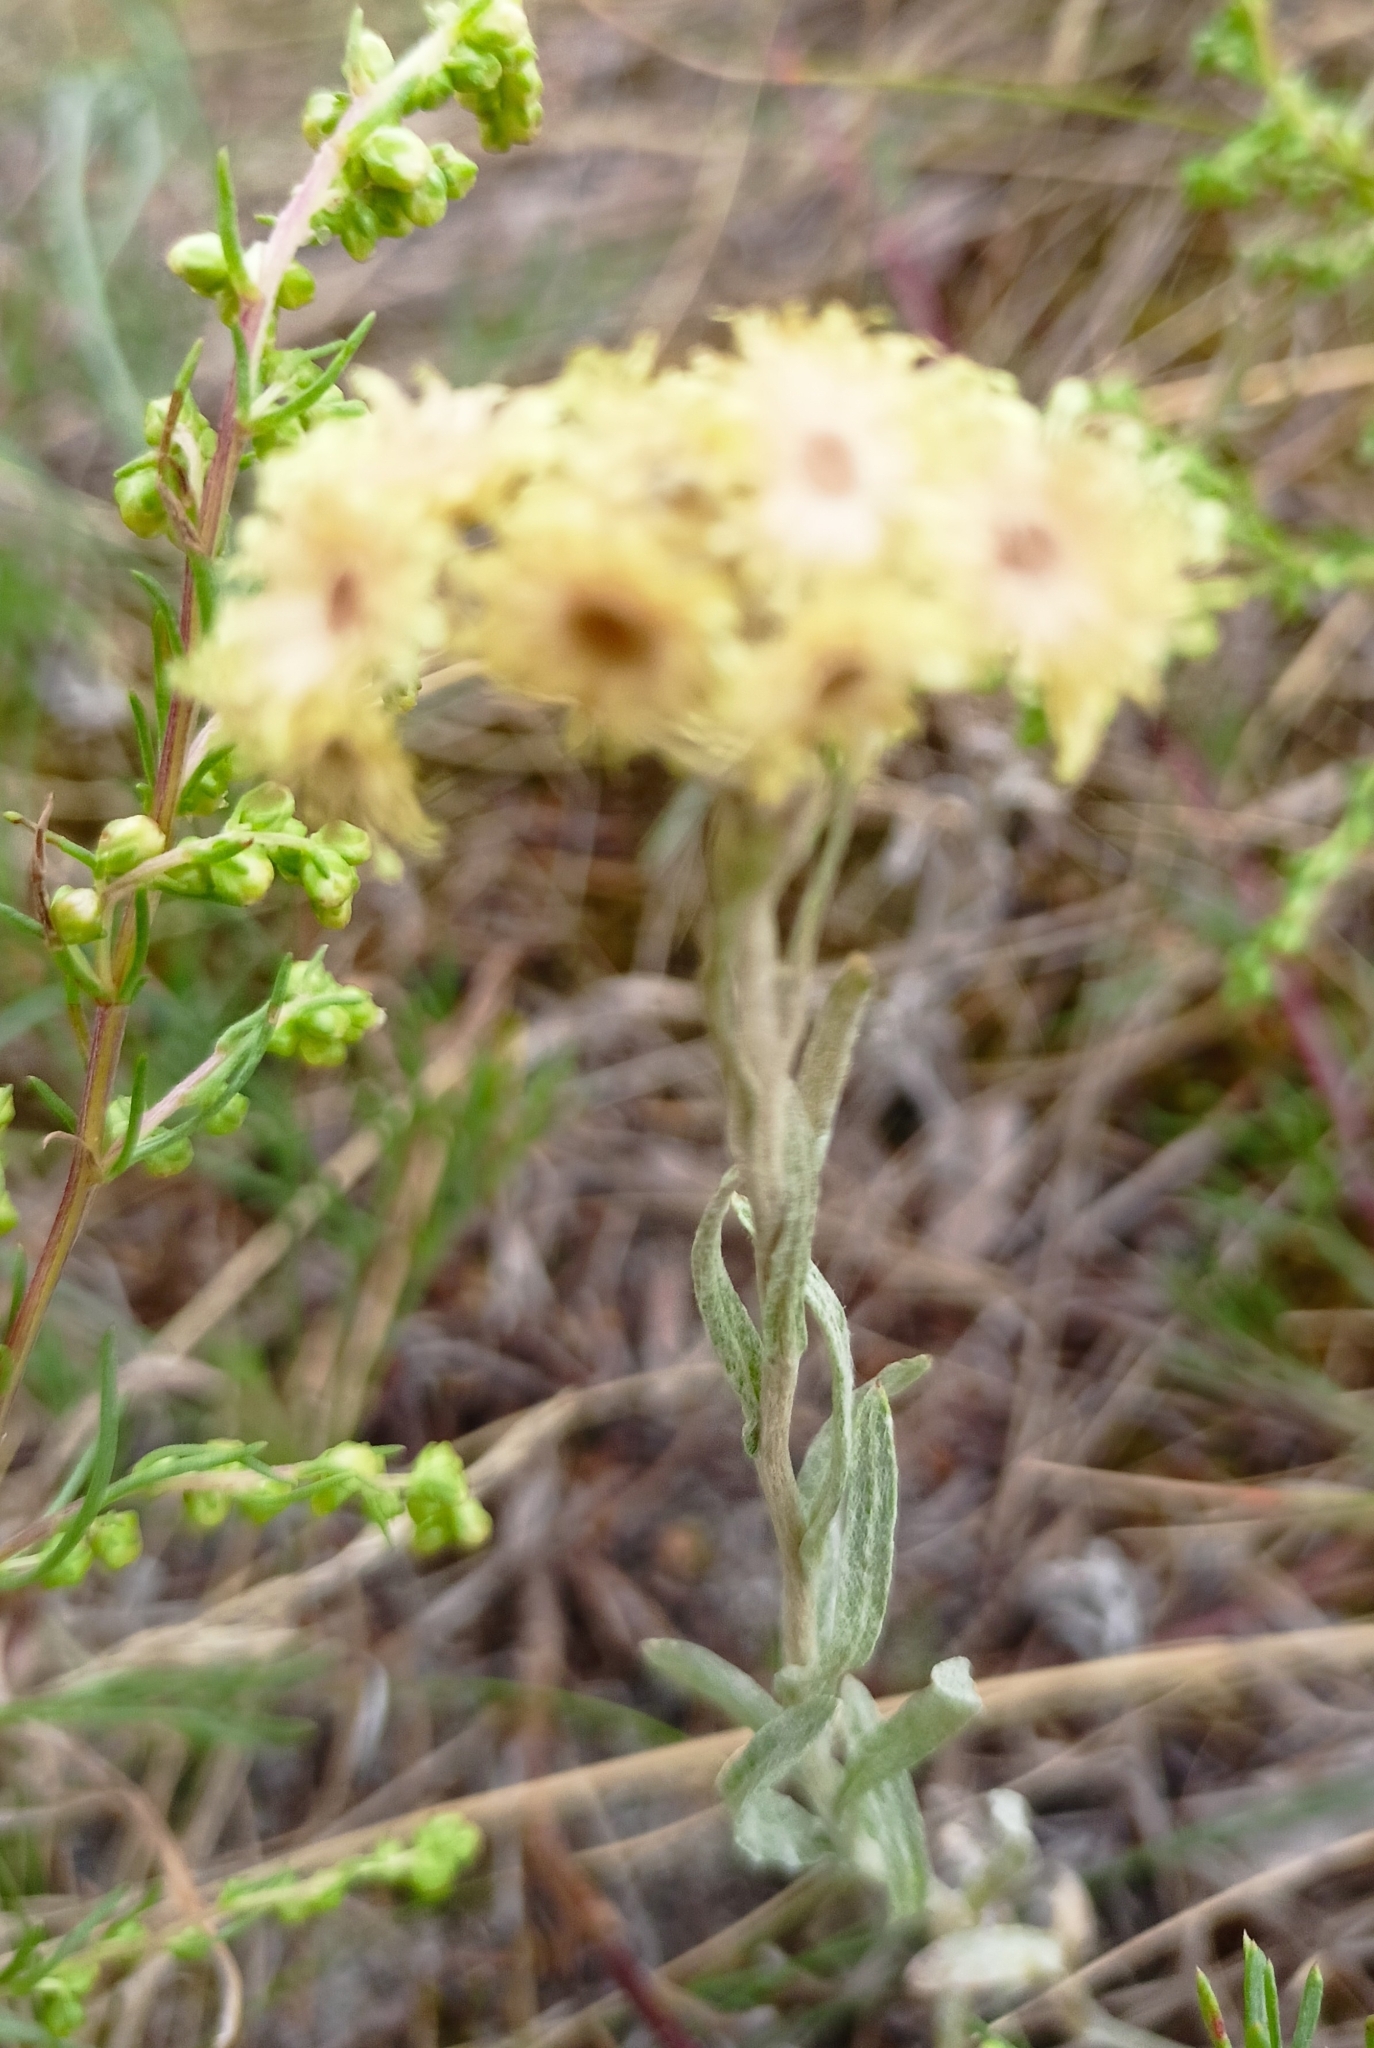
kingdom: Plantae
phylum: Tracheophyta
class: Magnoliopsida
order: Asterales
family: Asteraceae
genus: Helichrysum
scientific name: Helichrysum arenarium
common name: Strawflower
